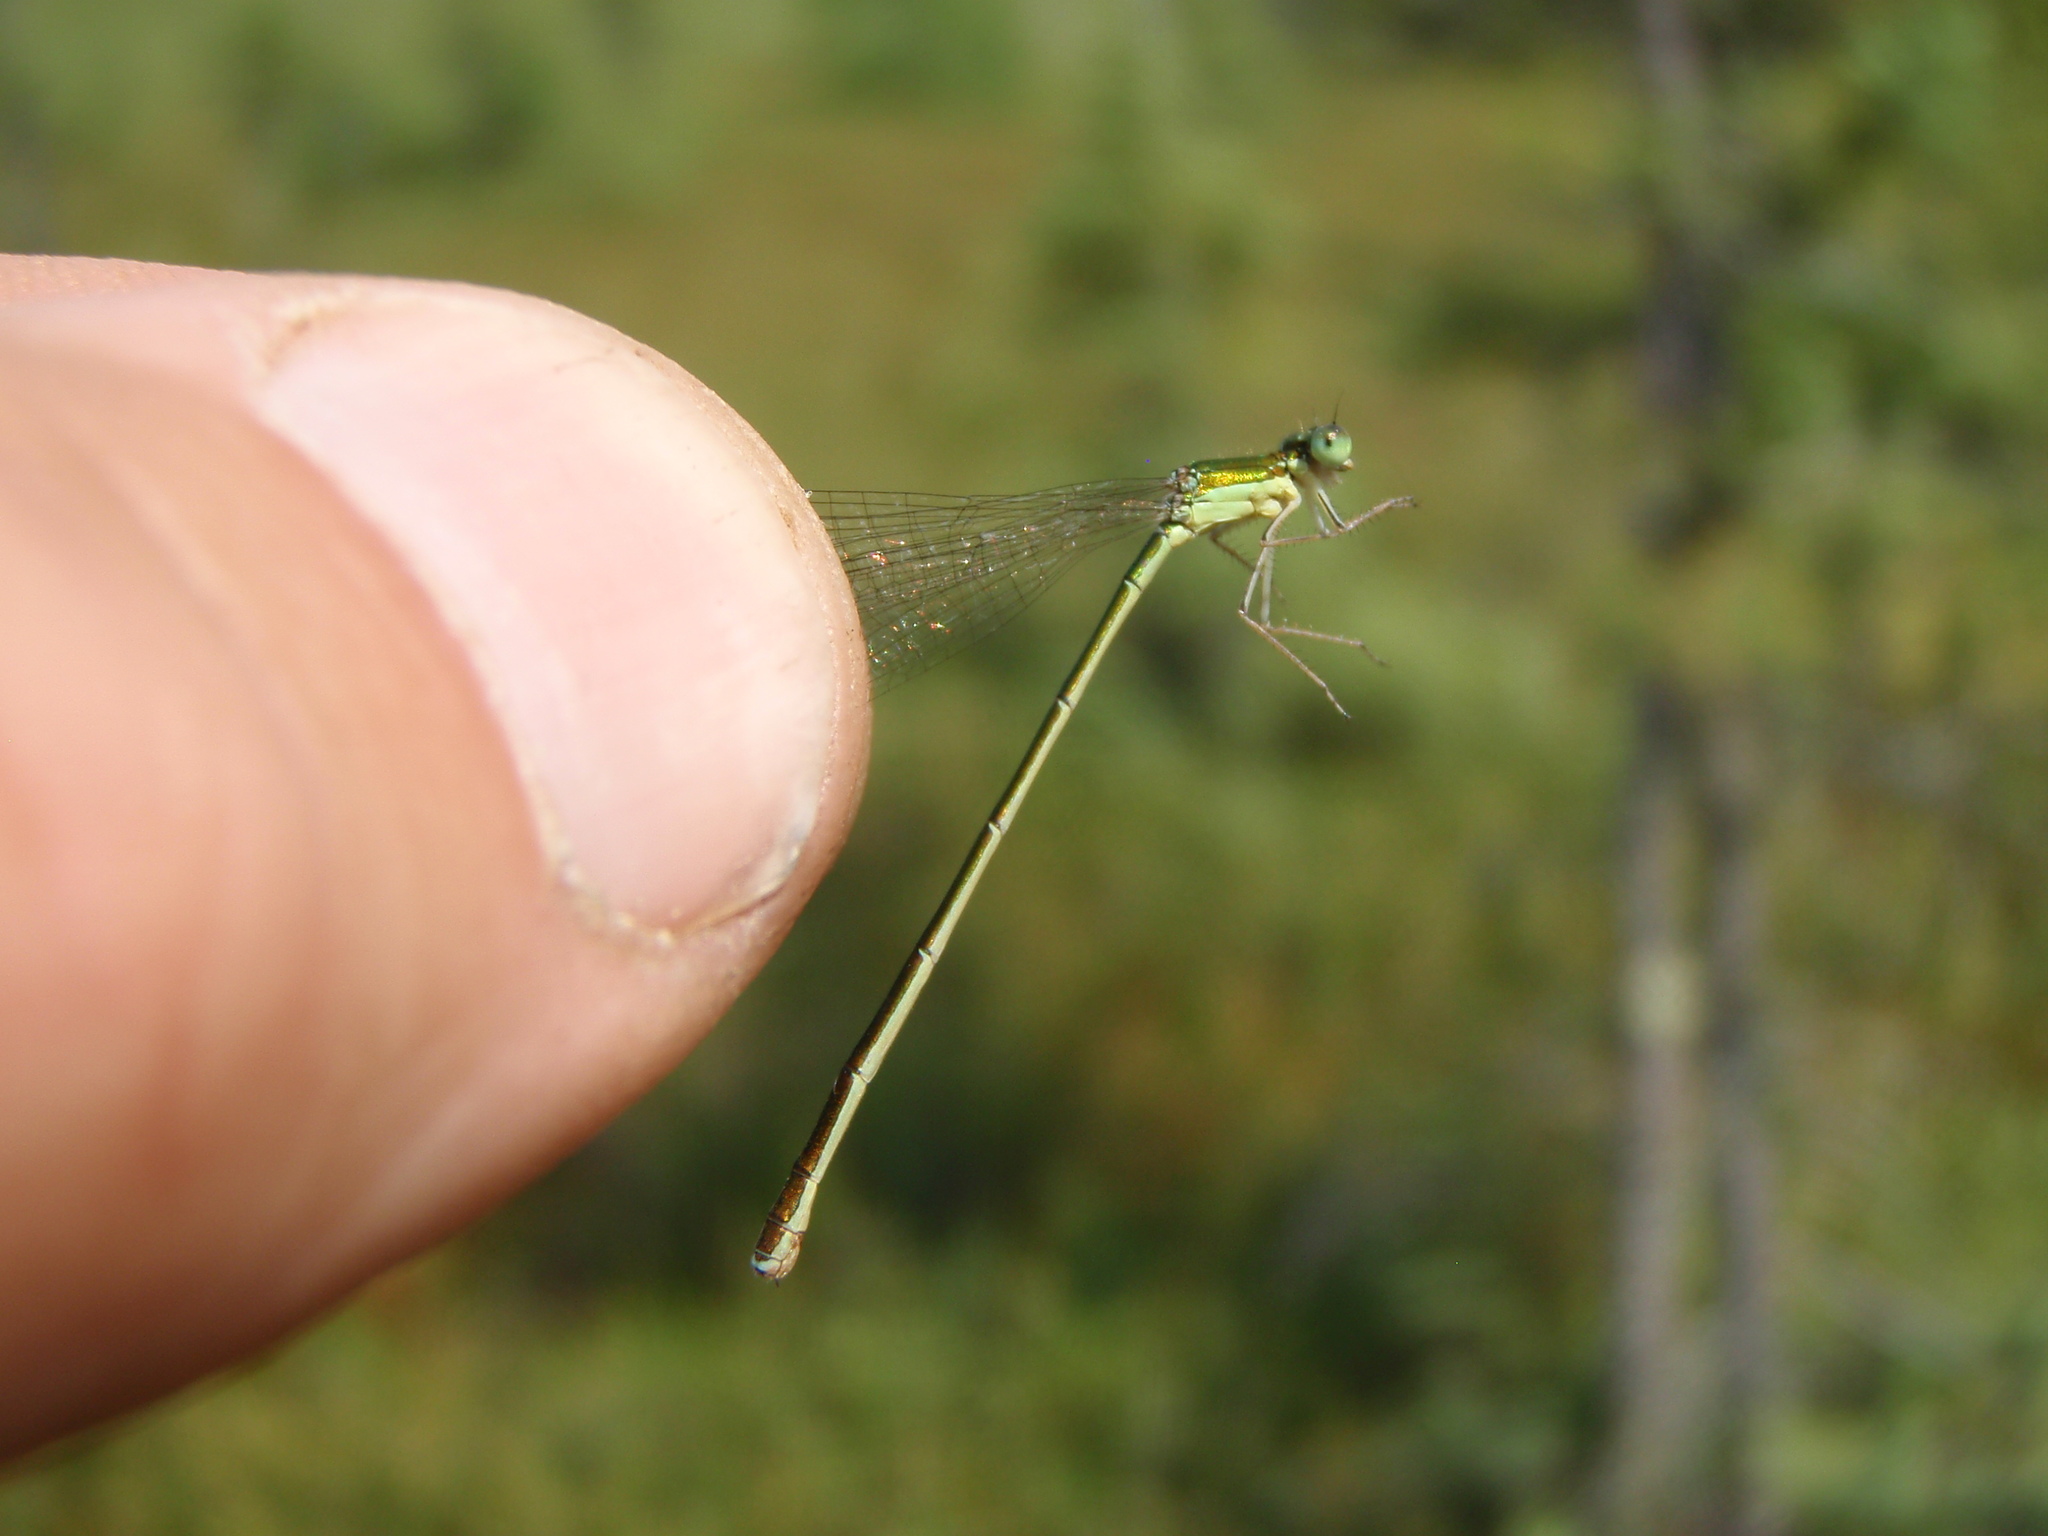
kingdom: Animalia
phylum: Arthropoda
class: Insecta
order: Odonata
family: Coenagrionidae
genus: Nehalennia
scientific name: Nehalennia irene
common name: Sedge sprite
